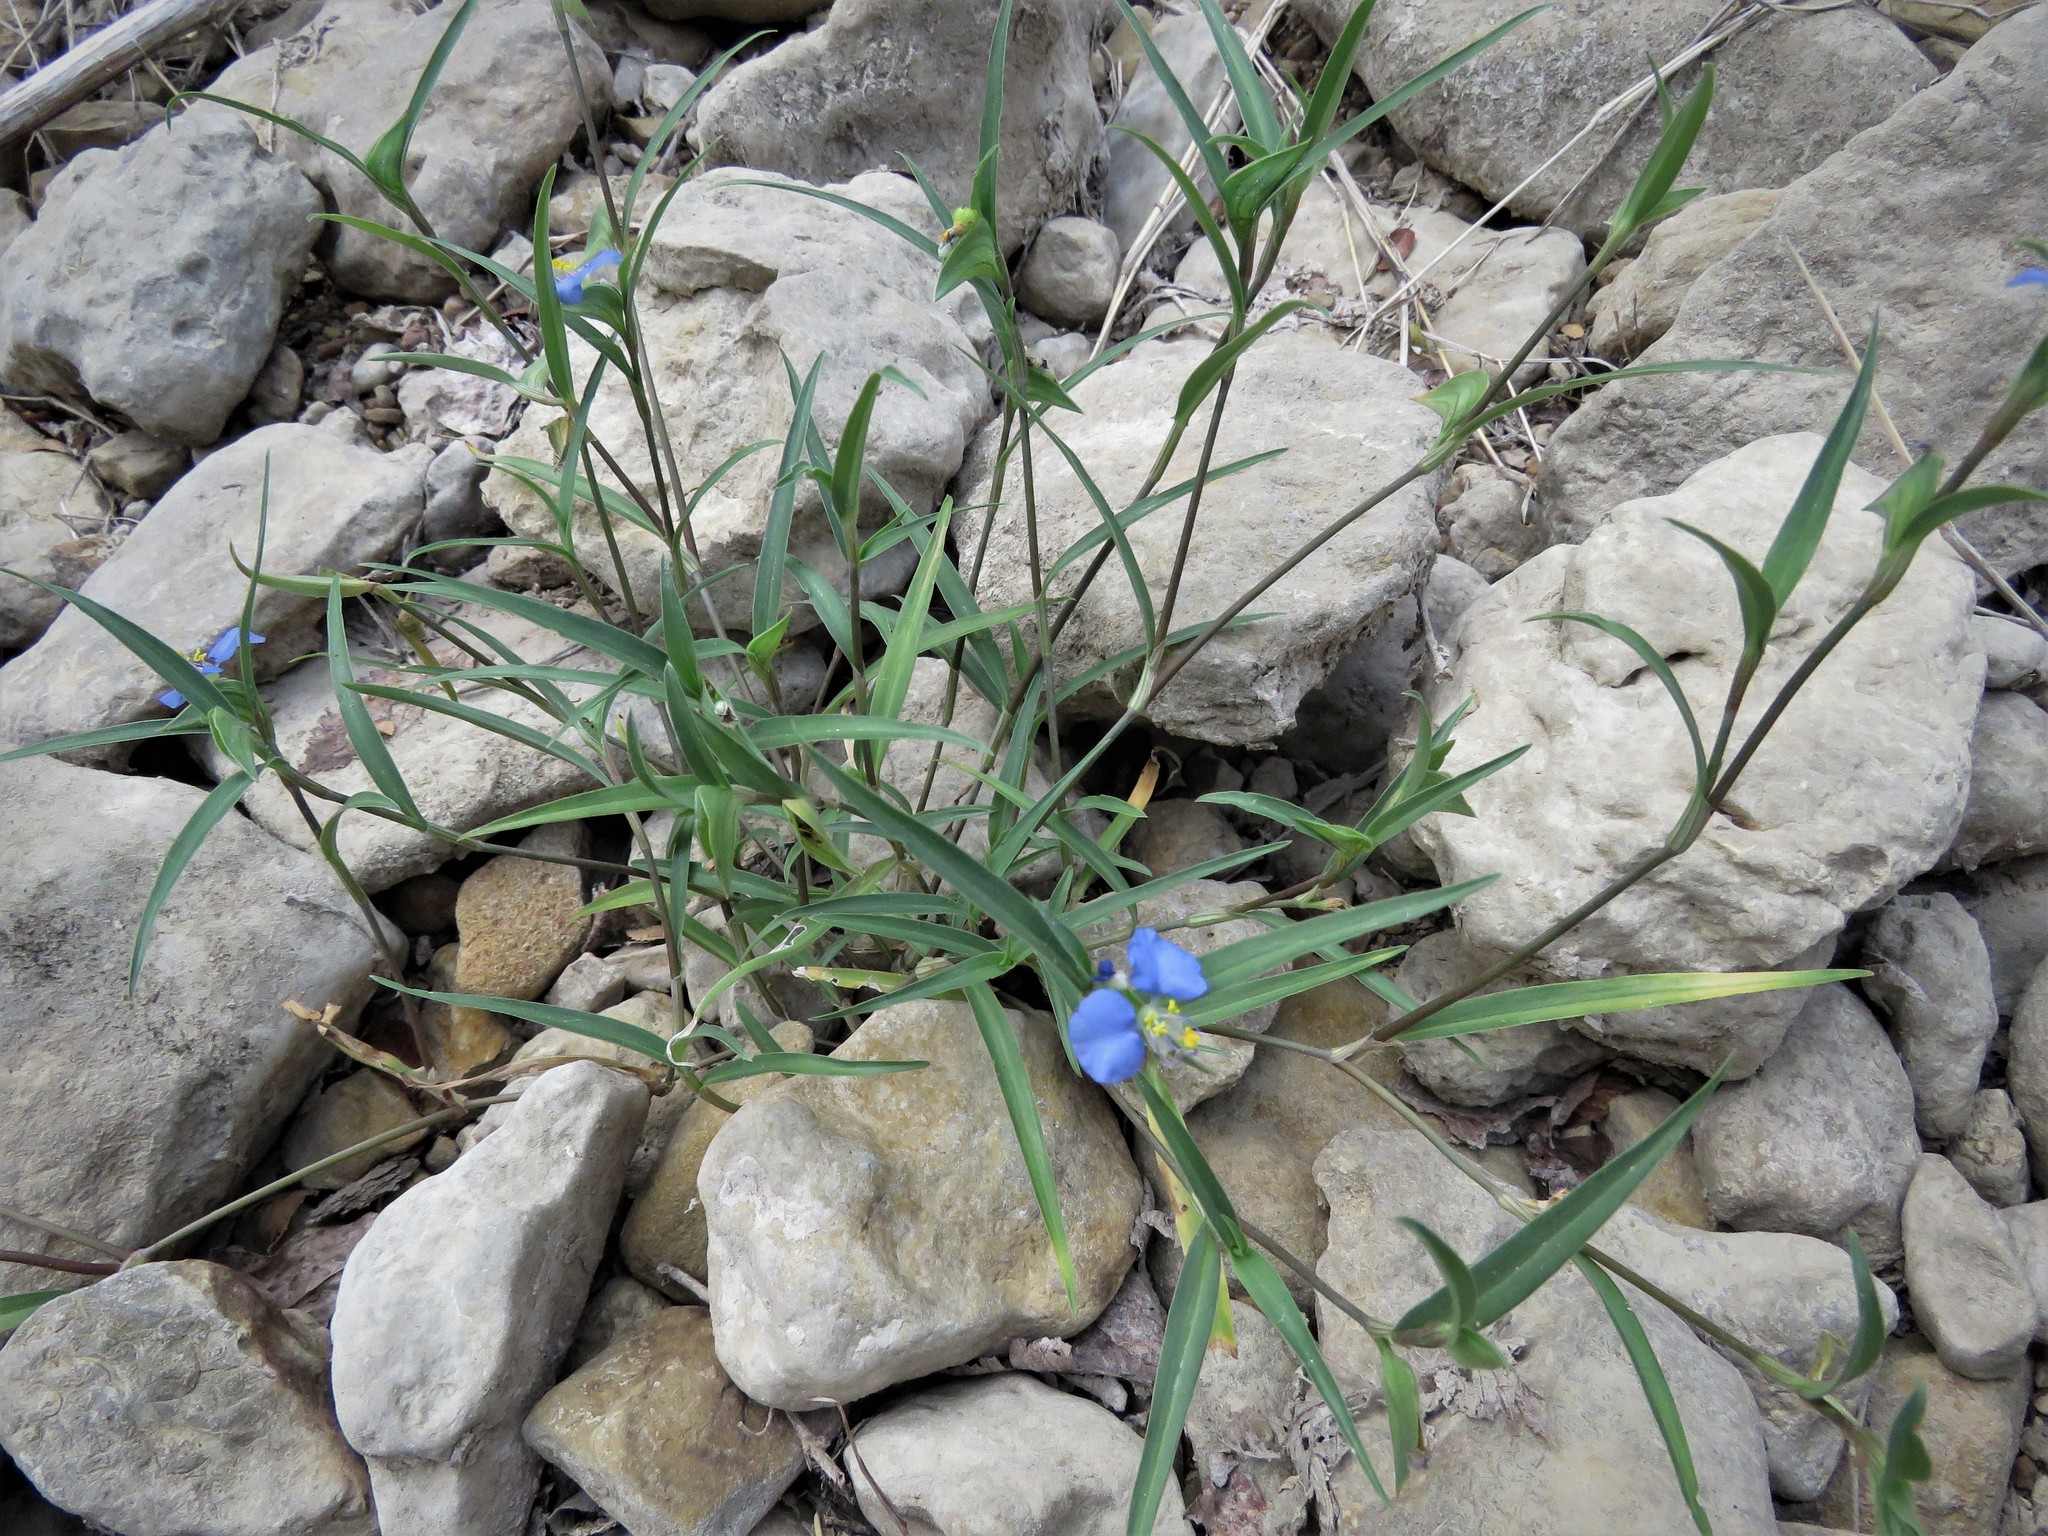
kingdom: Plantae
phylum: Tracheophyta
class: Liliopsida
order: Commelinales
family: Commelinaceae
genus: Commelina
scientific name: Commelina erecta
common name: Blousel blommetjie
